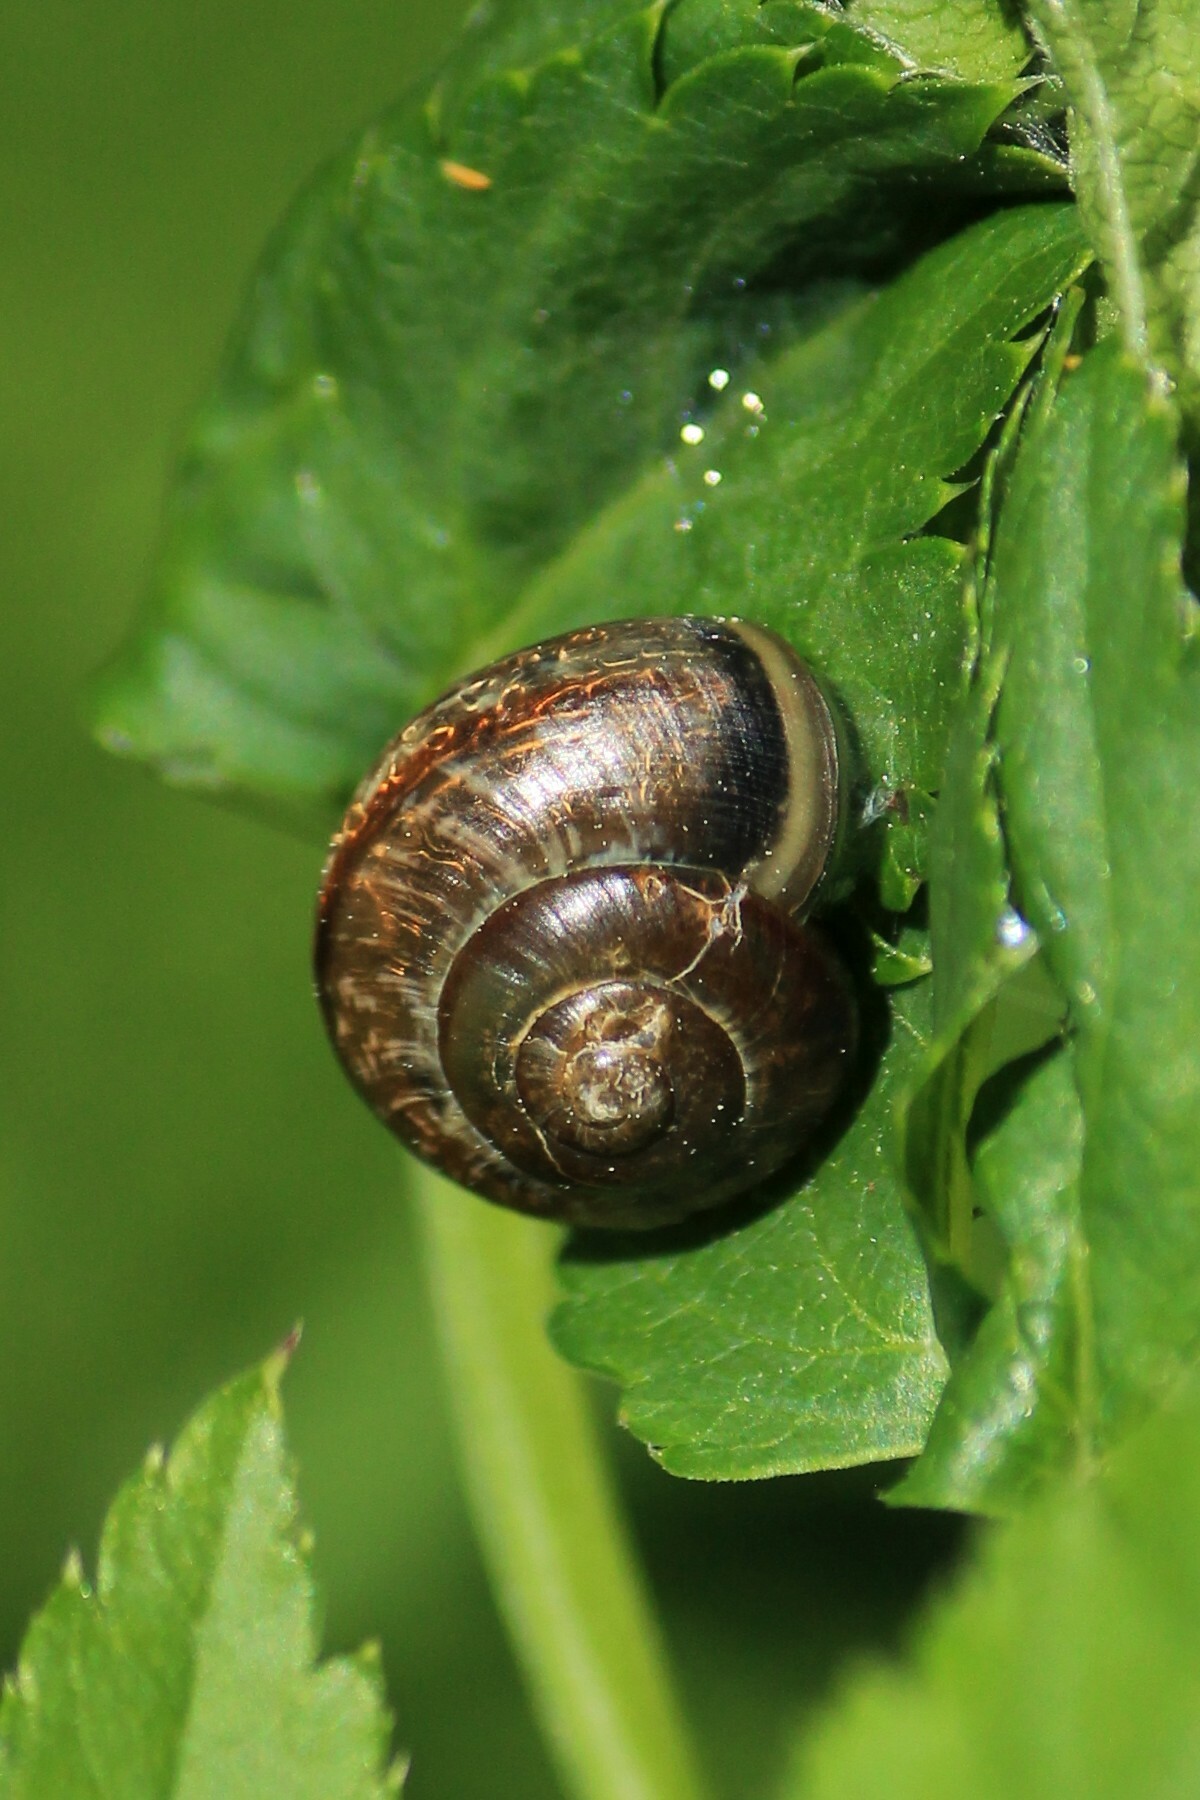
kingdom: Animalia
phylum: Mollusca
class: Gastropoda
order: Stylommatophora
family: Helicidae
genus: Arianta
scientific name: Arianta arbustorum
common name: Copse snail
